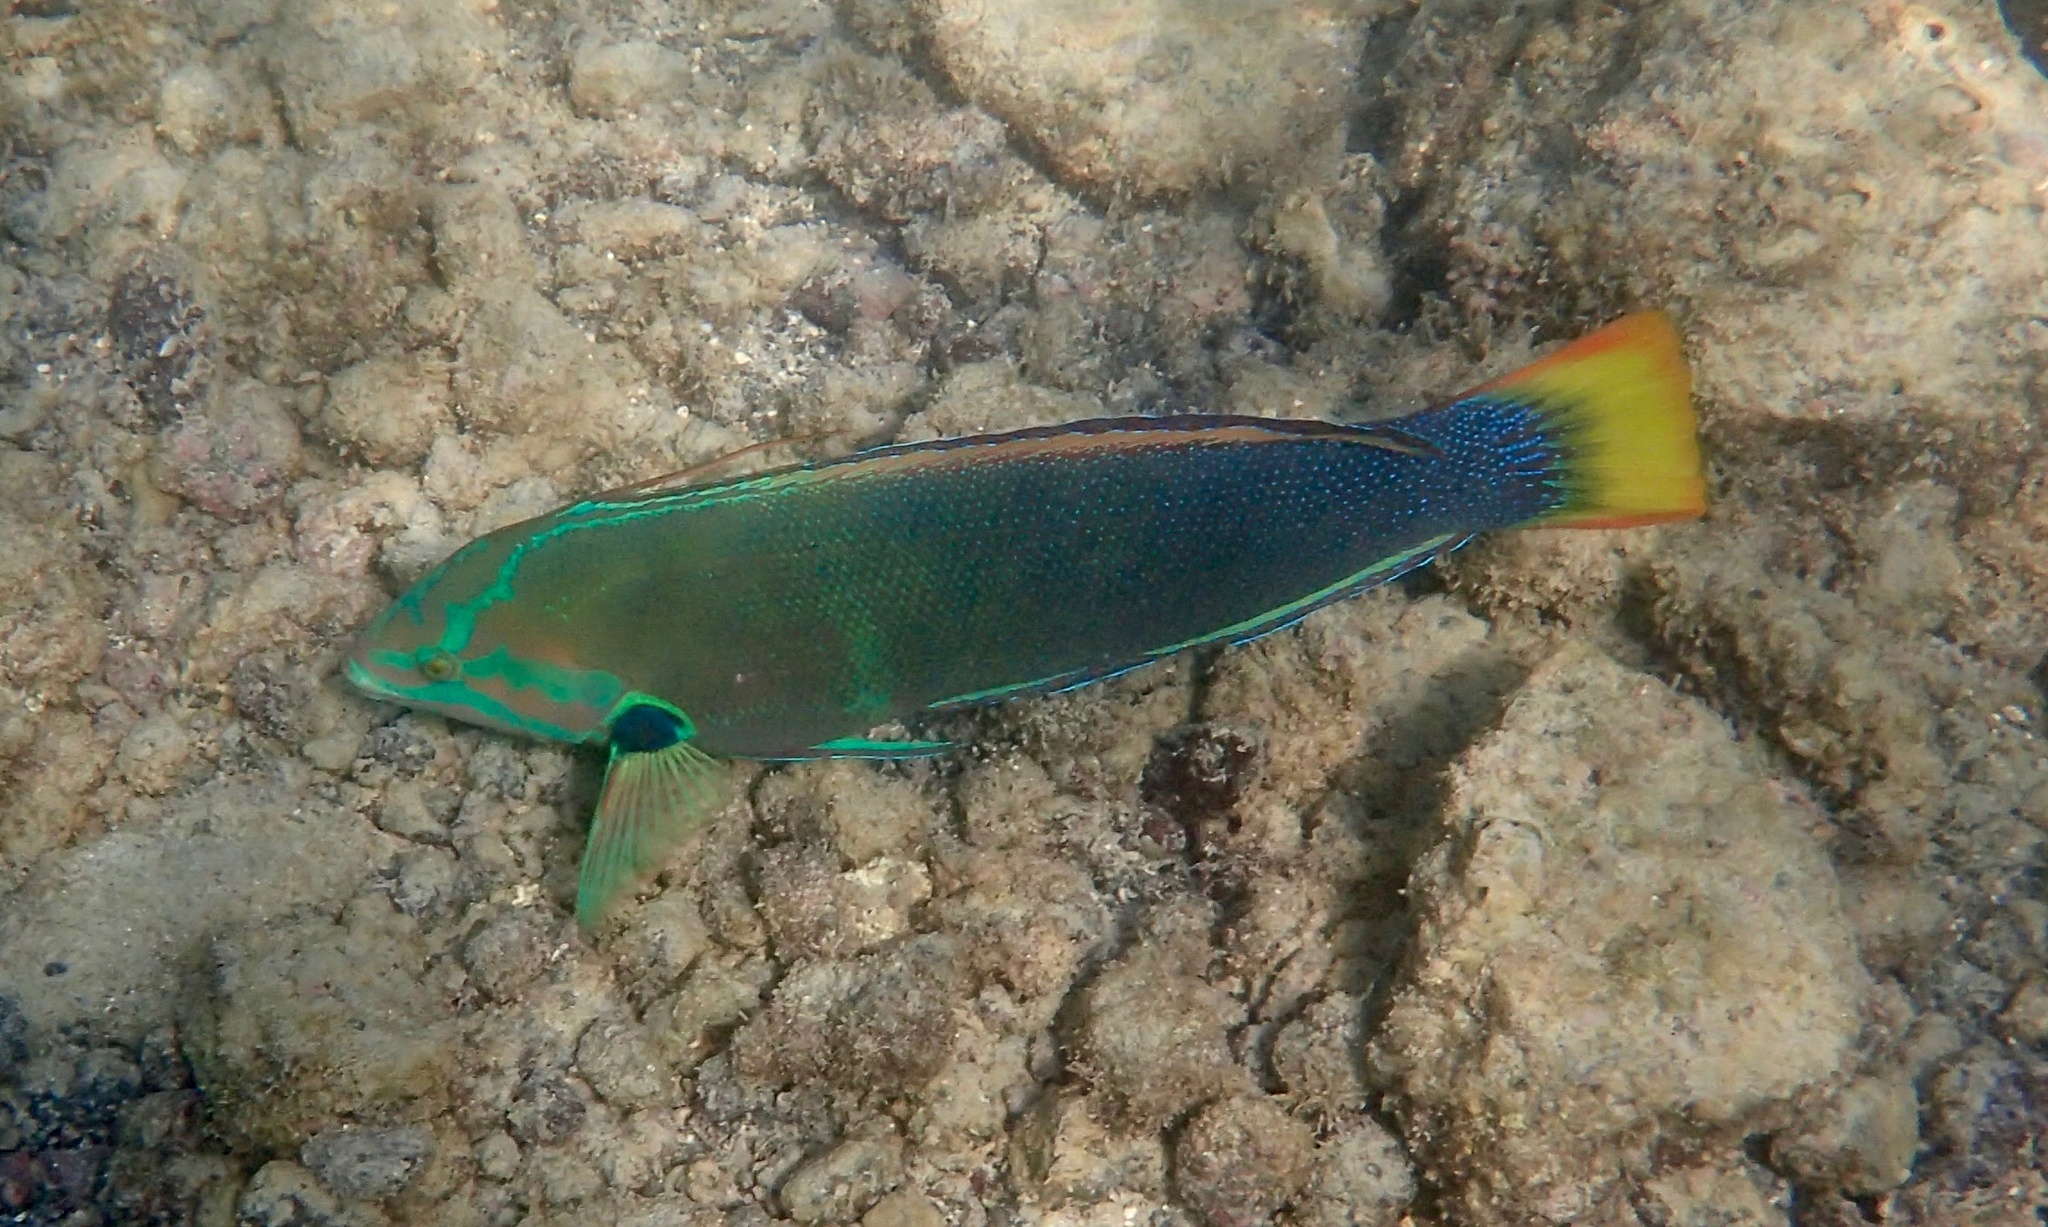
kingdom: Animalia
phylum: Chordata
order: Perciformes
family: Labridae
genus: Coris
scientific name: Coris gaimard
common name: Yellowtail coris
